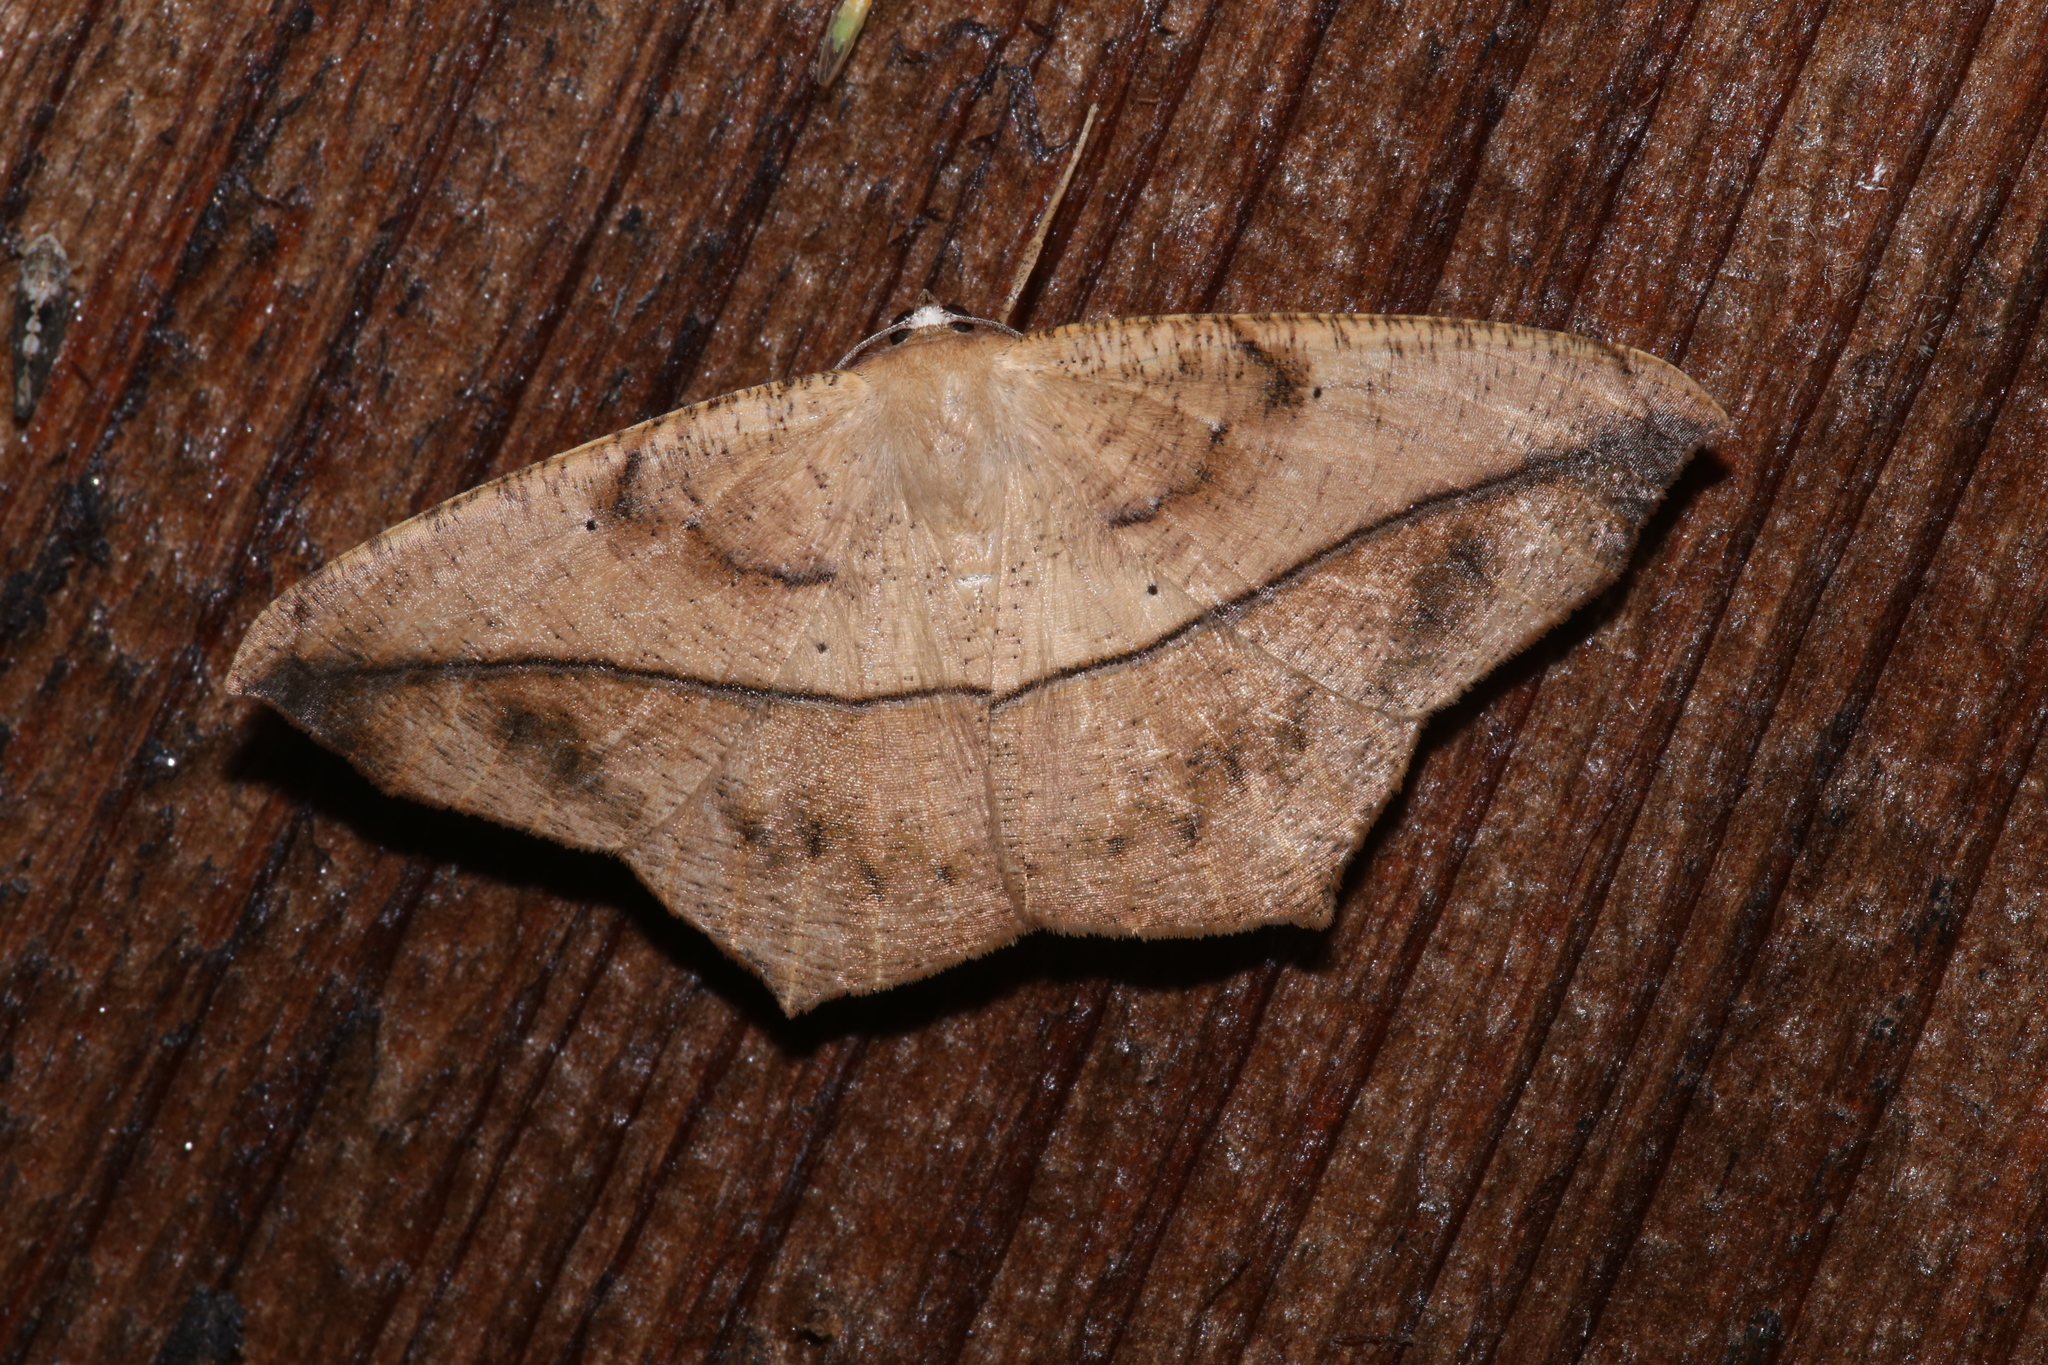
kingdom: Animalia
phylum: Arthropoda
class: Insecta
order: Lepidoptera
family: Geometridae
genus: Prochoerodes
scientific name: Prochoerodes lineola
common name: Large maple spanworm
